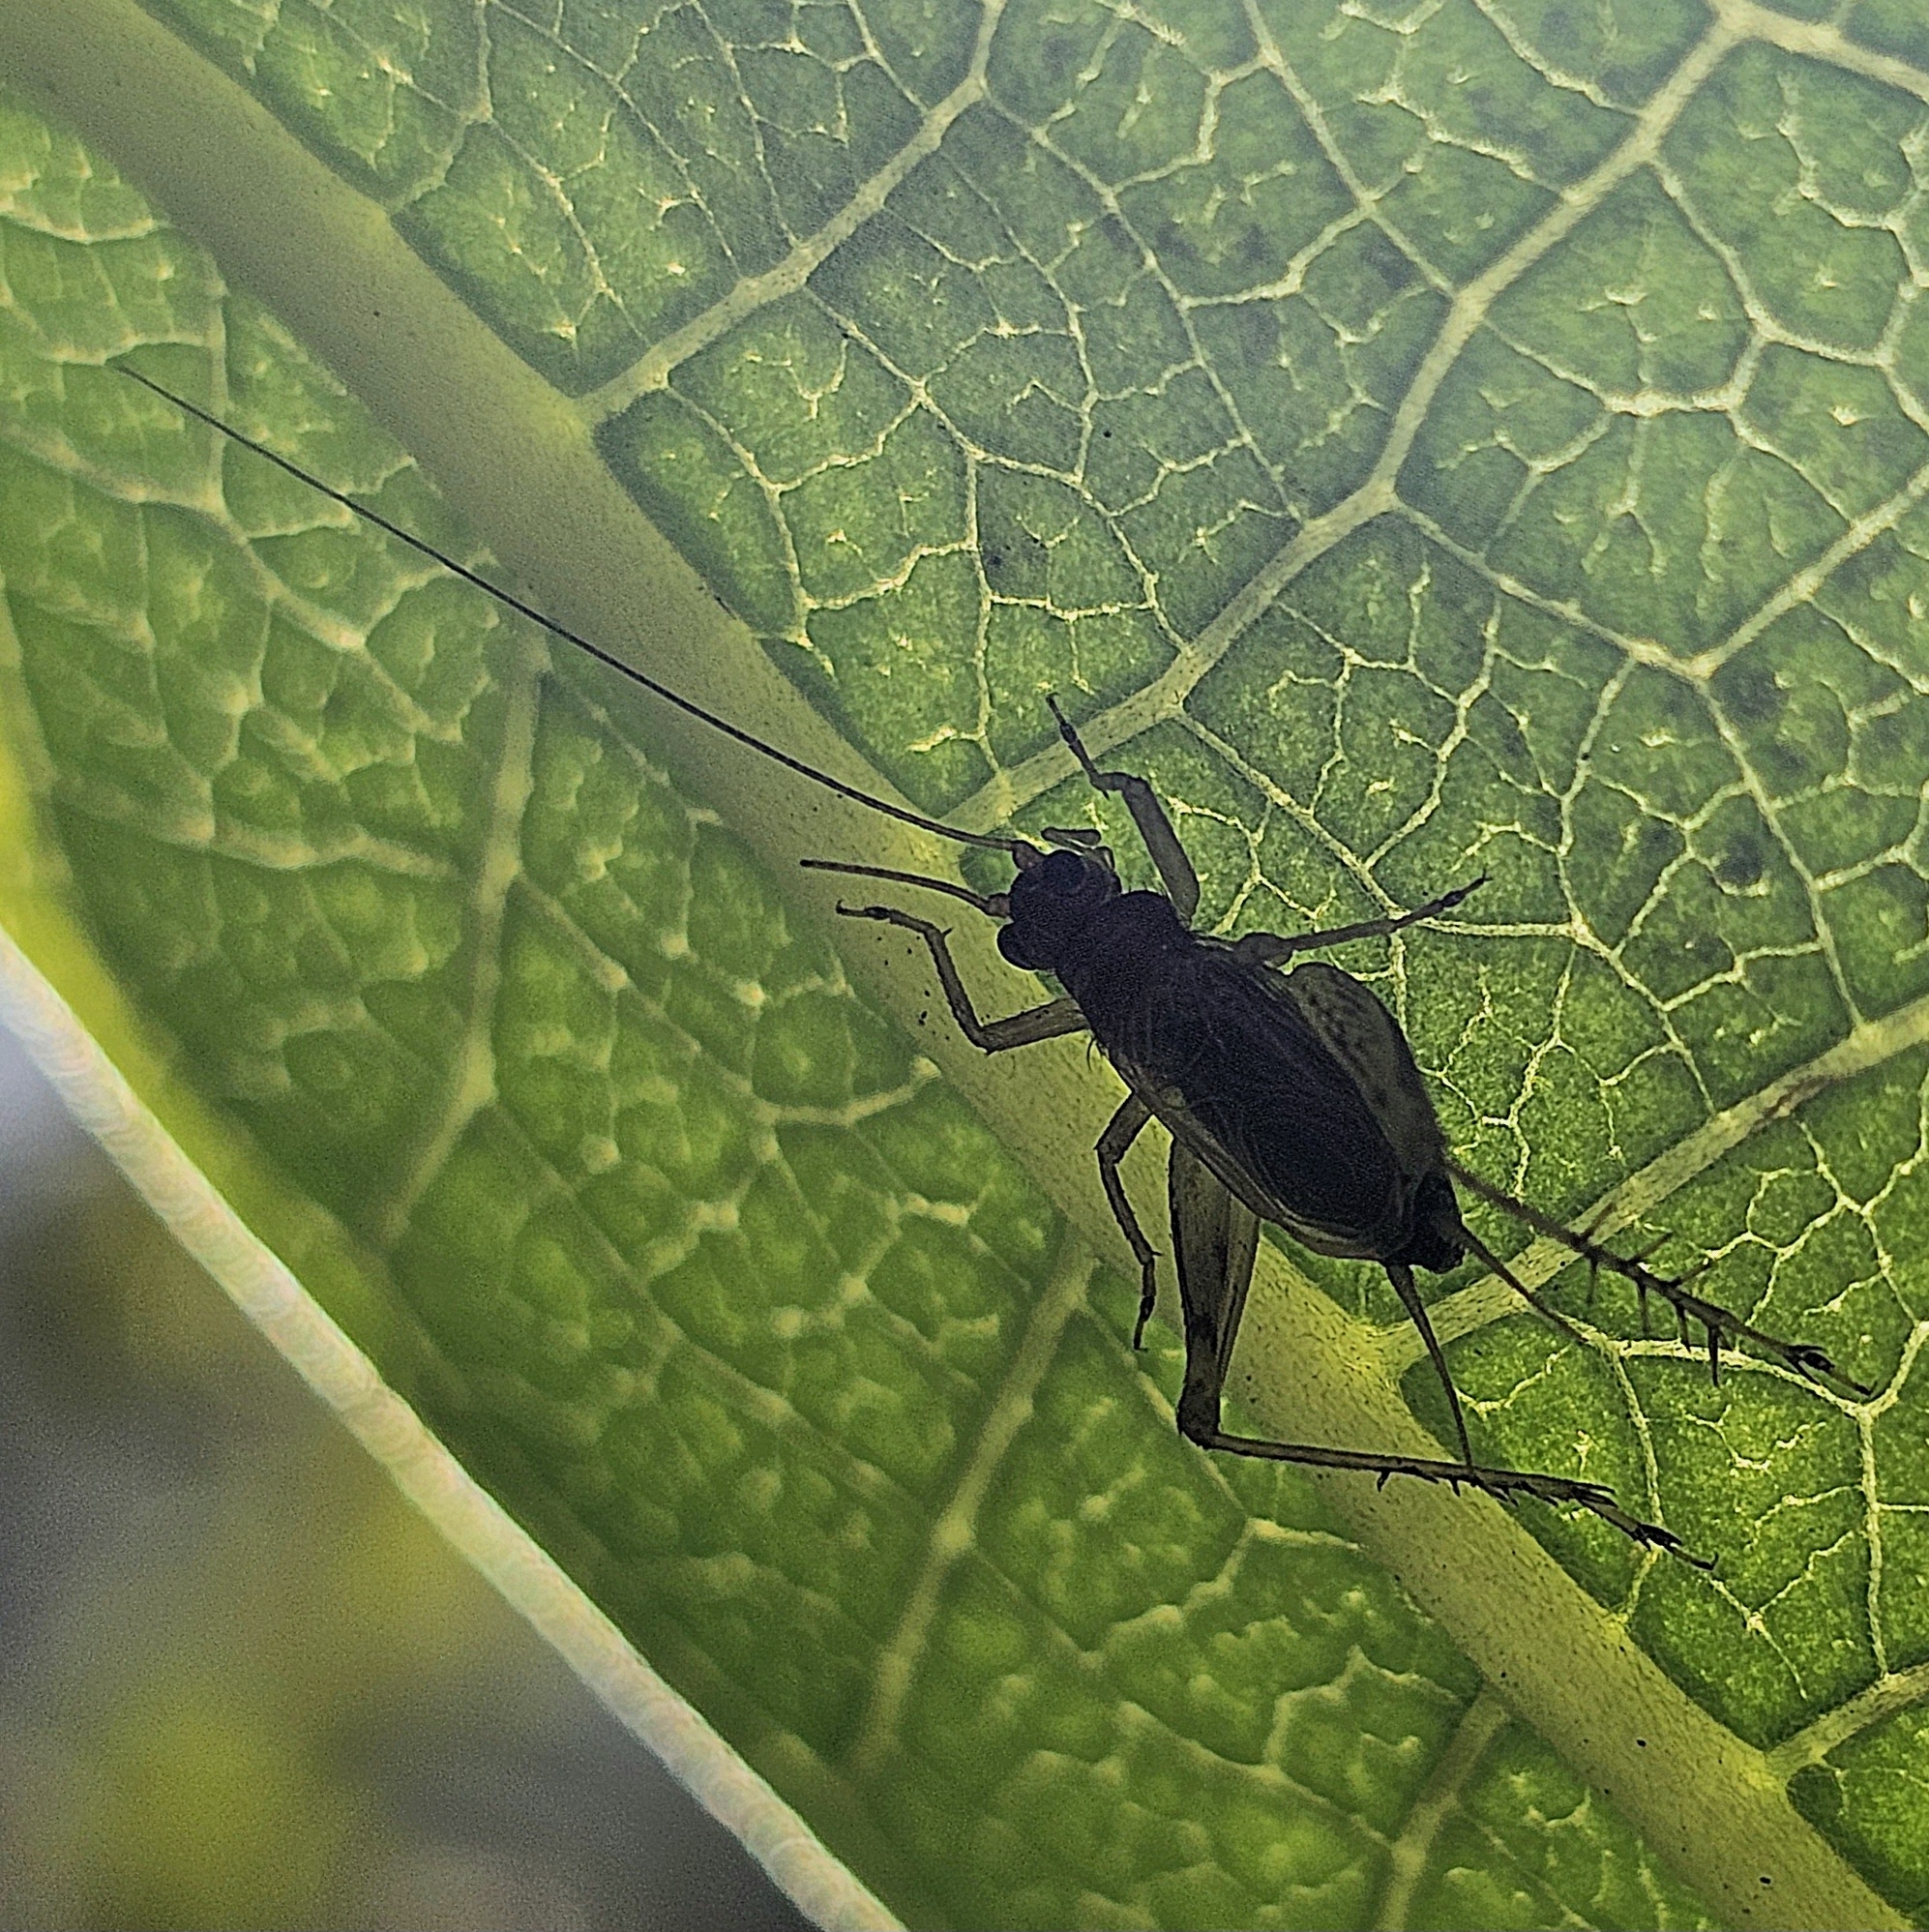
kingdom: Animalia
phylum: Arthropoda
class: Insecta
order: Orthoptera
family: Trigonidiidae
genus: Anaxipha
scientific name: Anaxipha exigua
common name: Say's bush cricket
